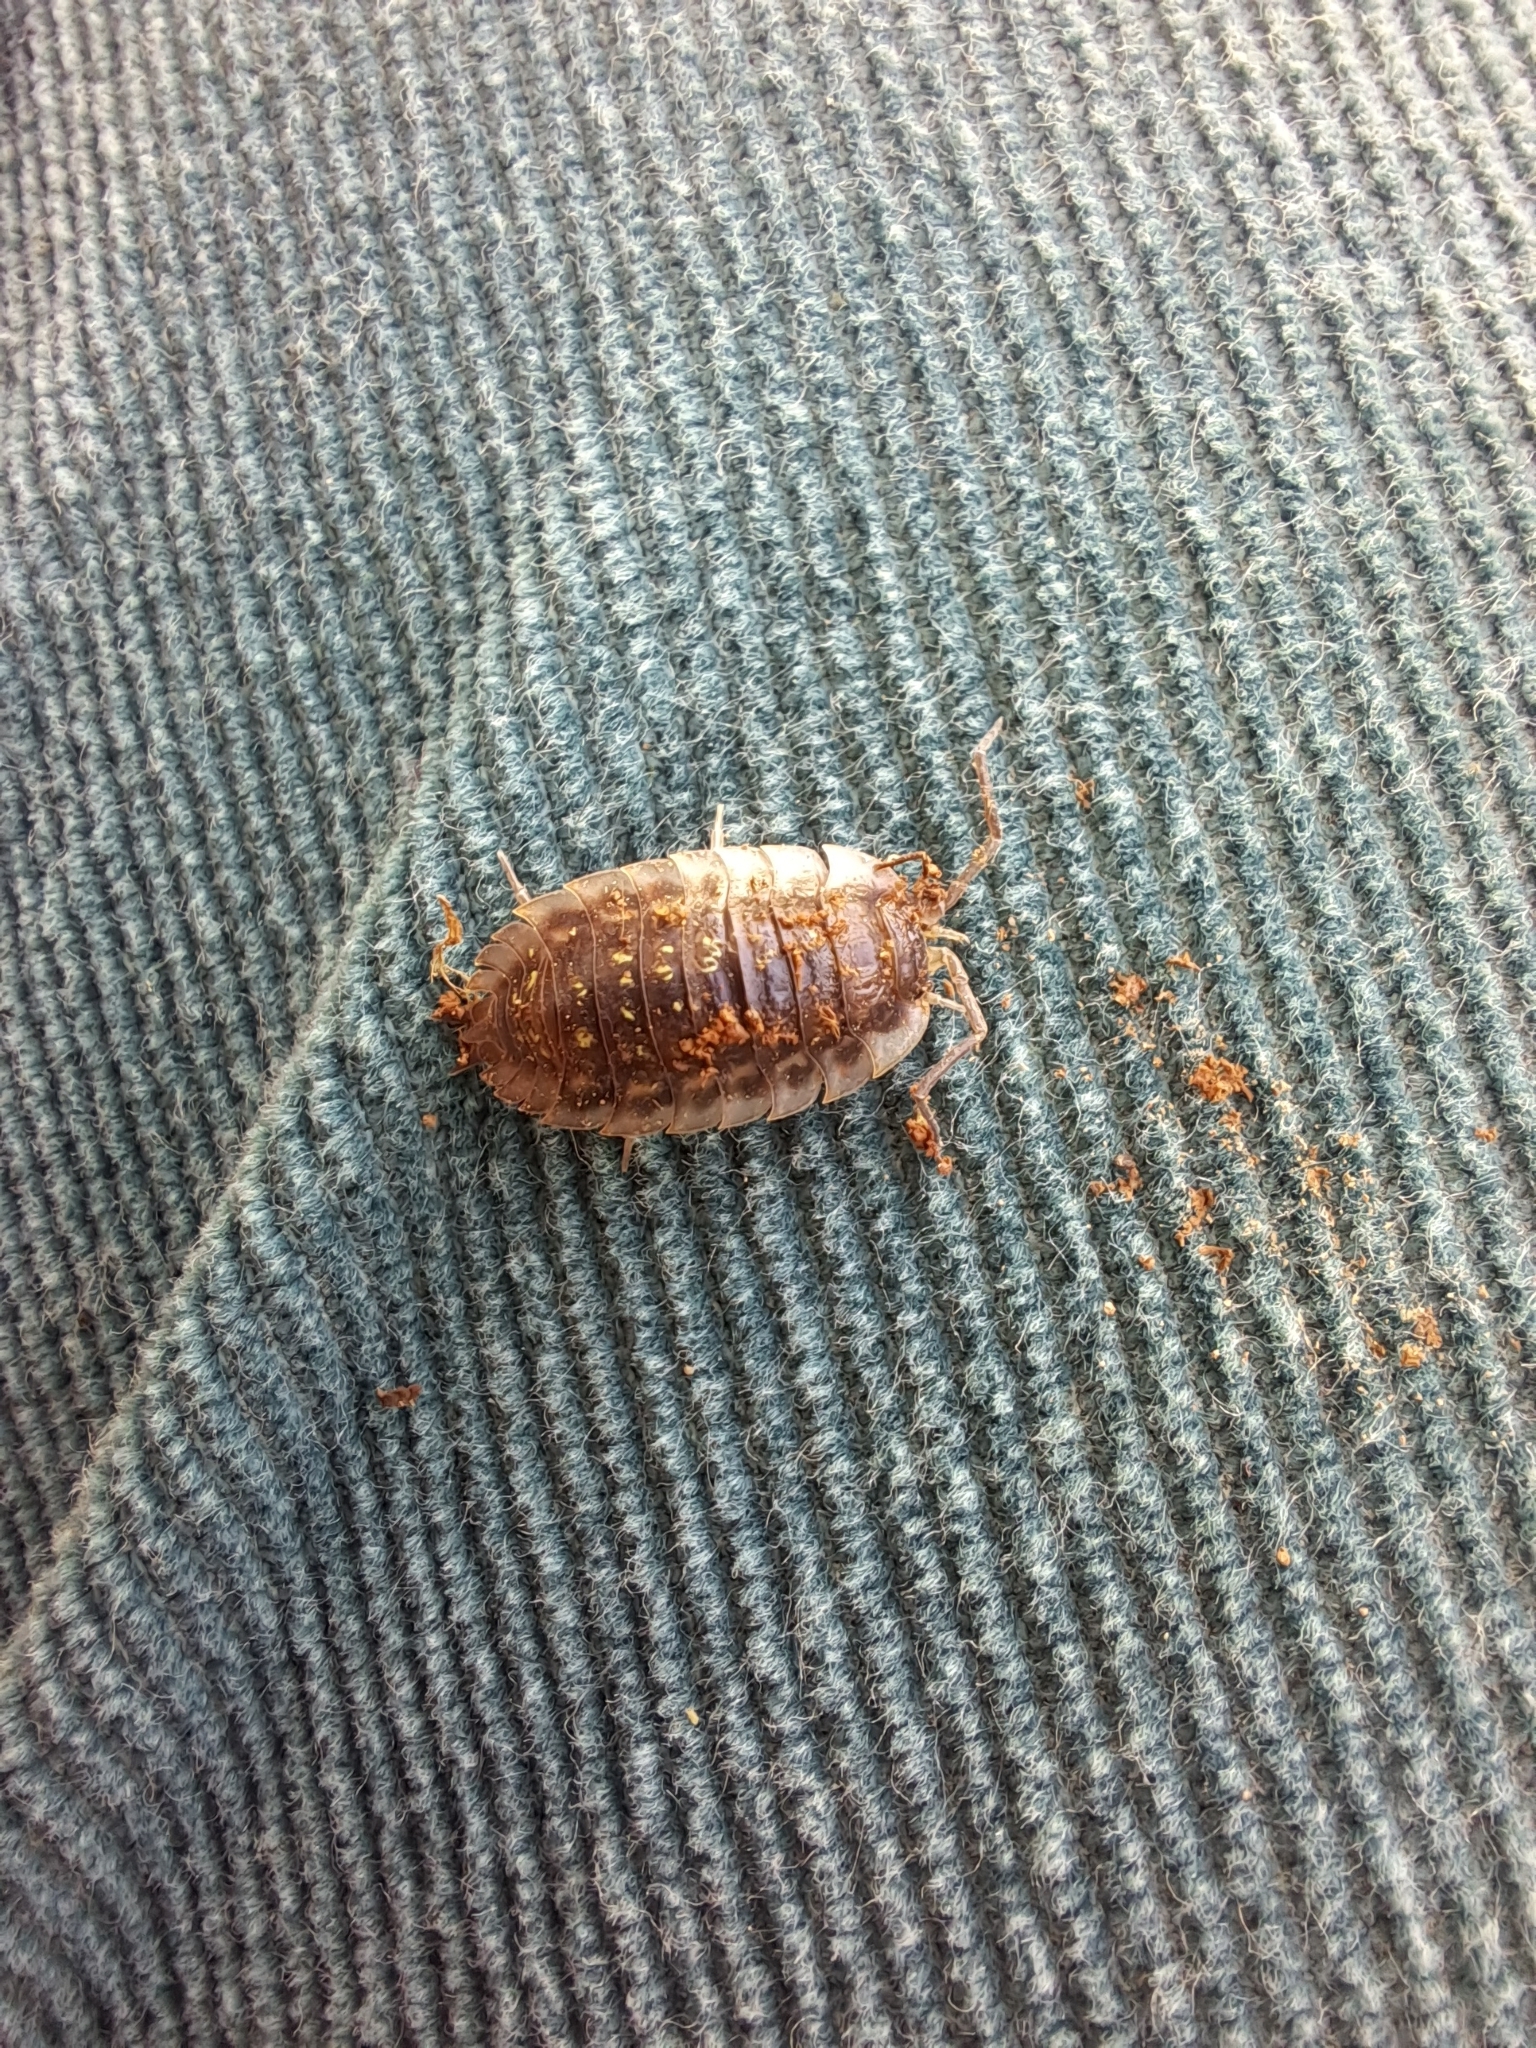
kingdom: Animalia
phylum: Arthropoda
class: Malacostraca
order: Isopoda
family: Oniscidae
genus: Oniscus
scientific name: Oniscus asellus
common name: Common shiny woodlouse
